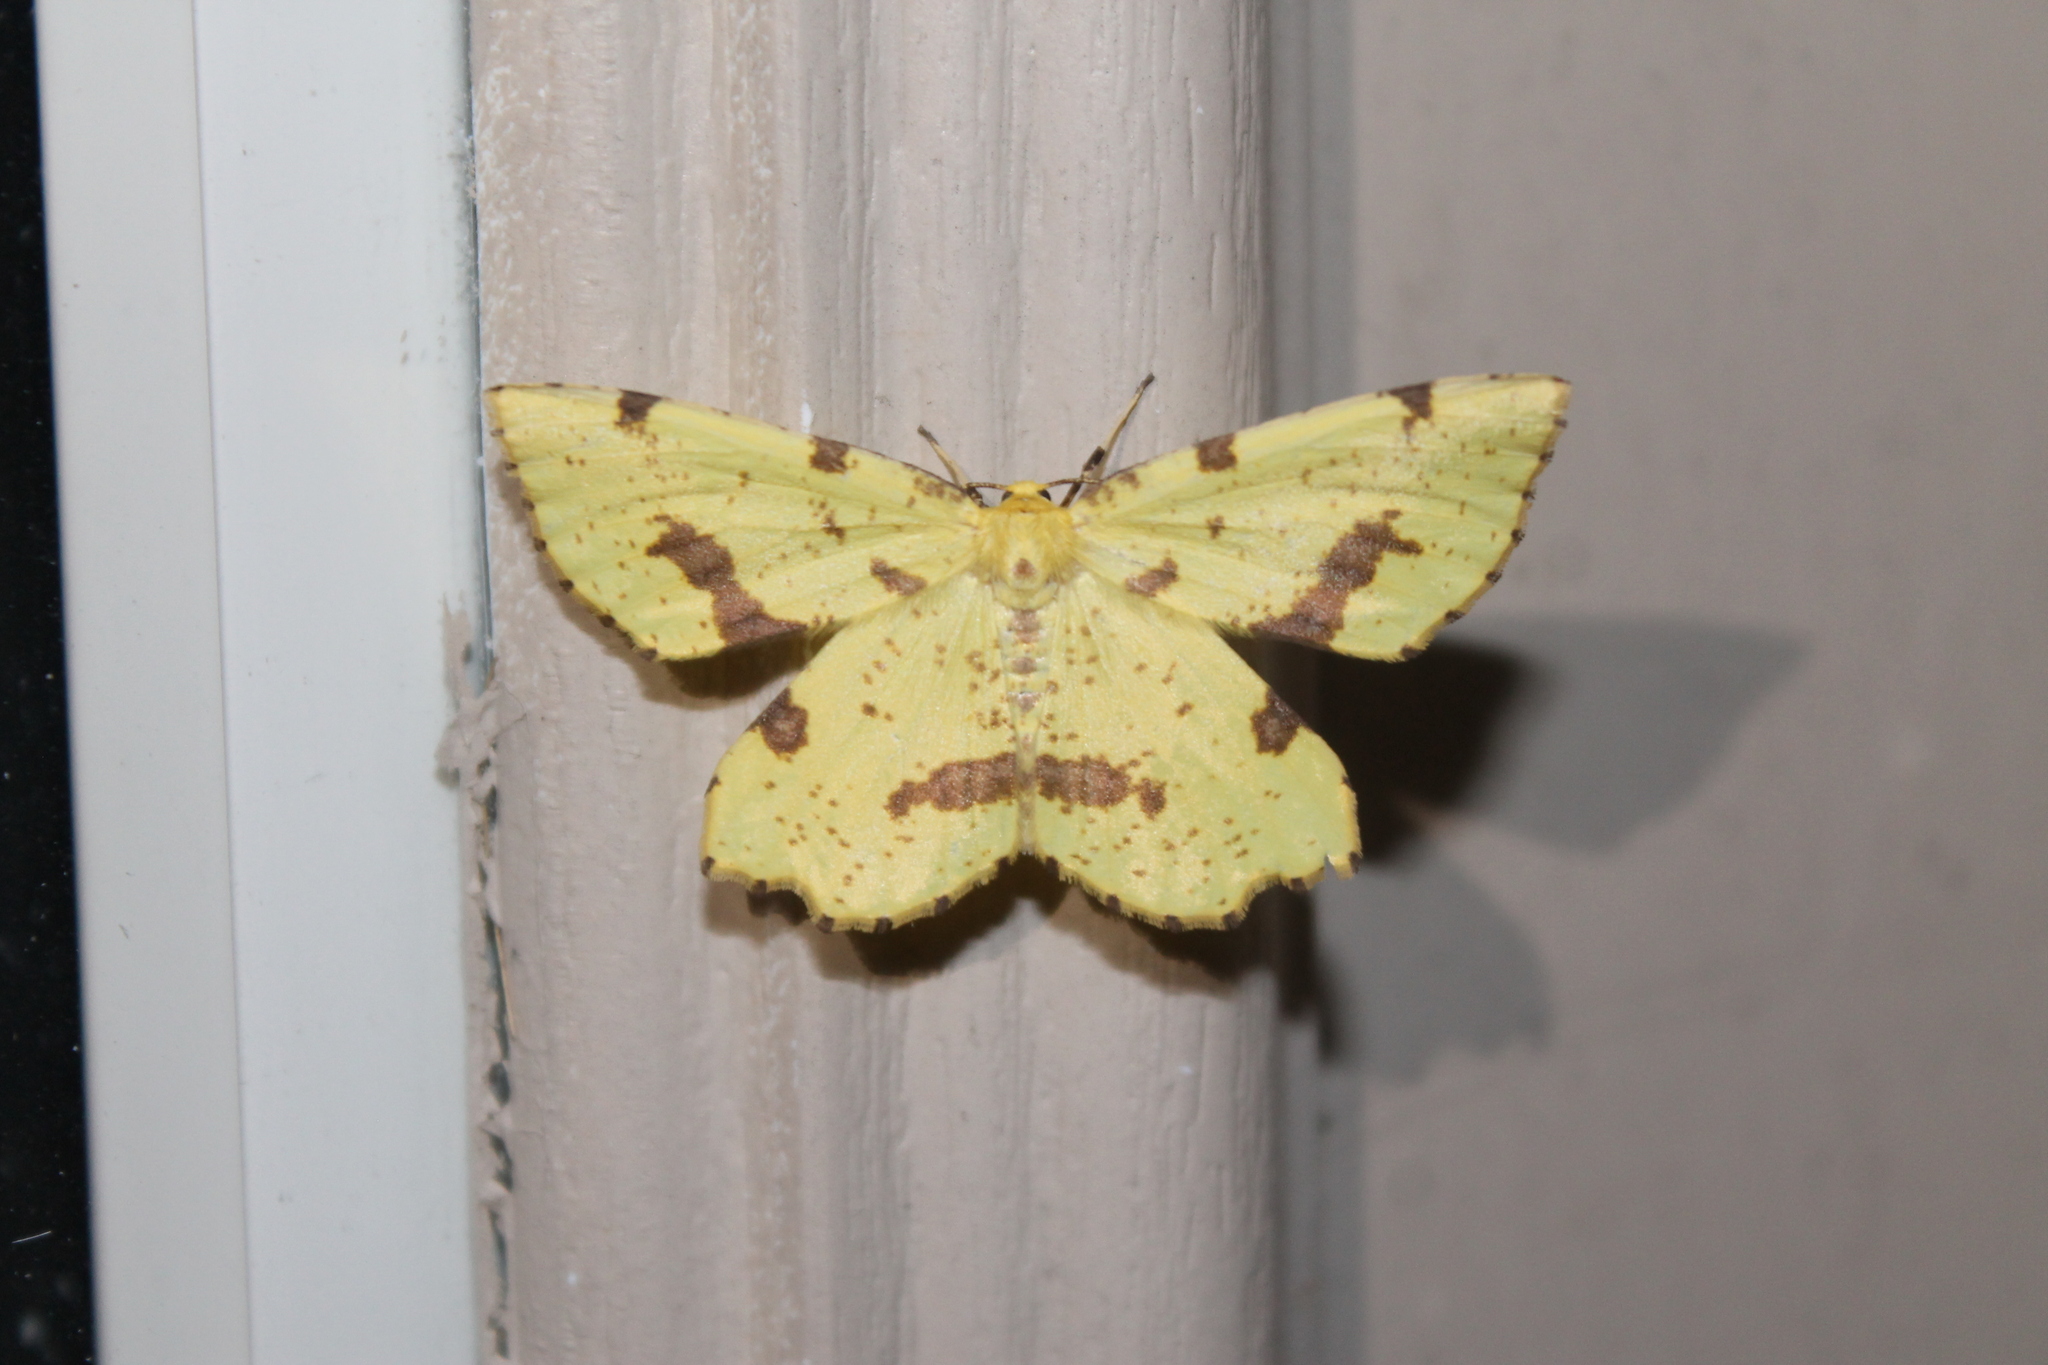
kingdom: Animalia
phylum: Arthropoda
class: Insecta
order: Lepidoptera
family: Geometridae
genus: Xanthotype
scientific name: Xanthotype
